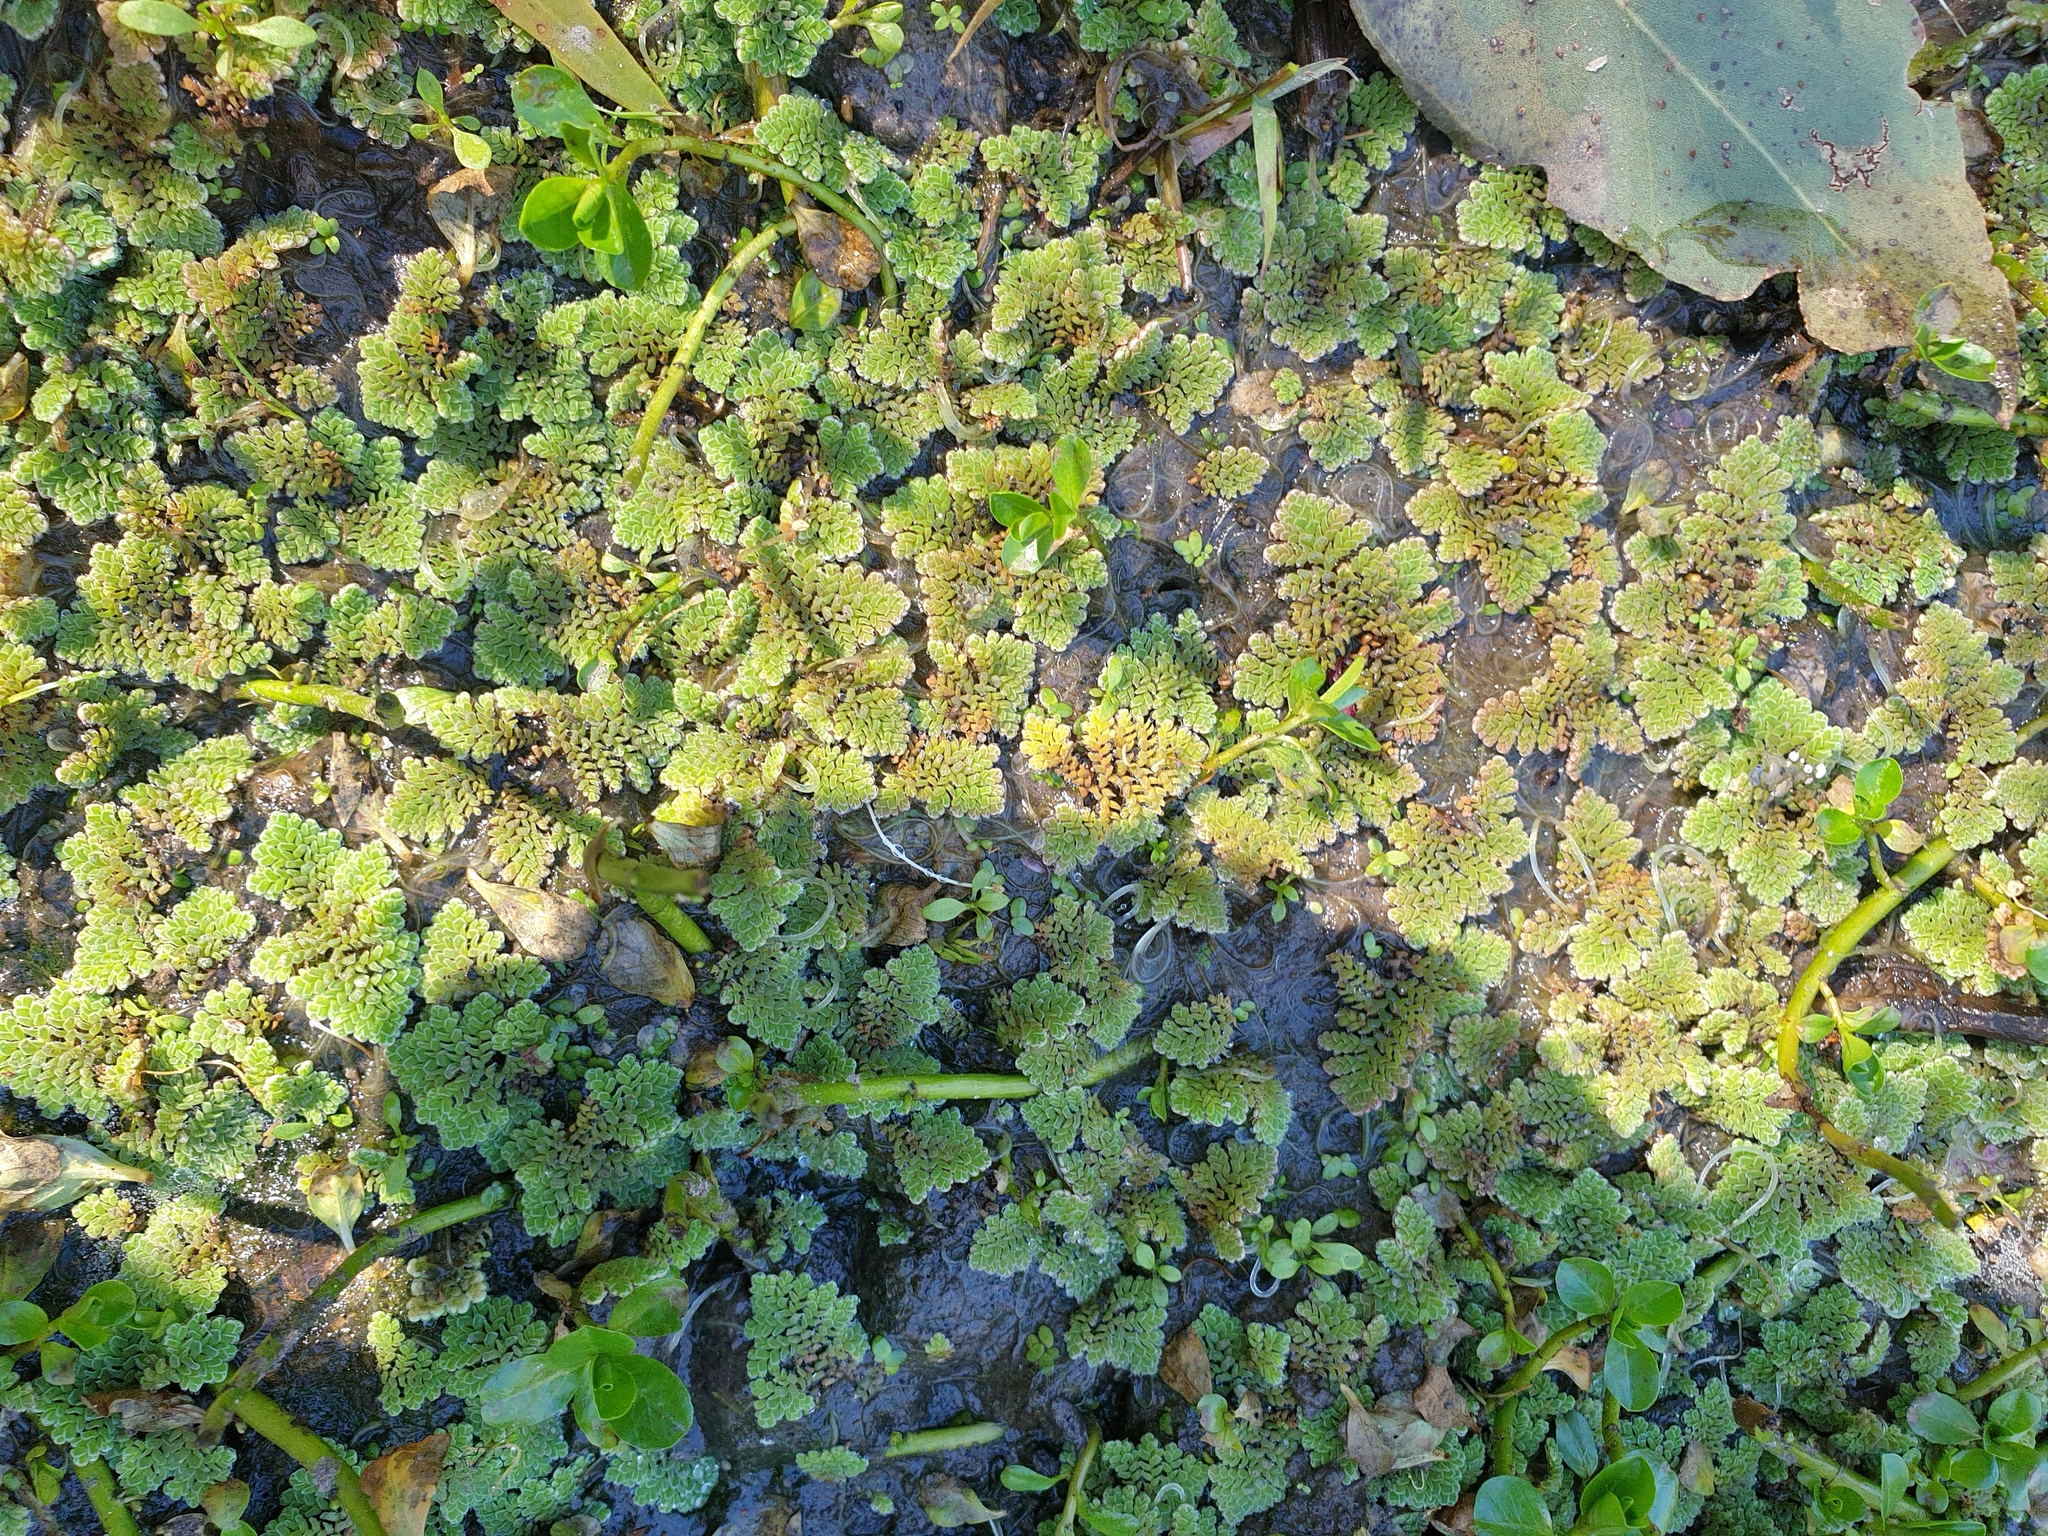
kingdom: Plantae
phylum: Tracheophyta
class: Polypodiopsida
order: Salviniales
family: Salviniaceae
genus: Azolla
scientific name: Azolla pinnata
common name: Ferny azolla
